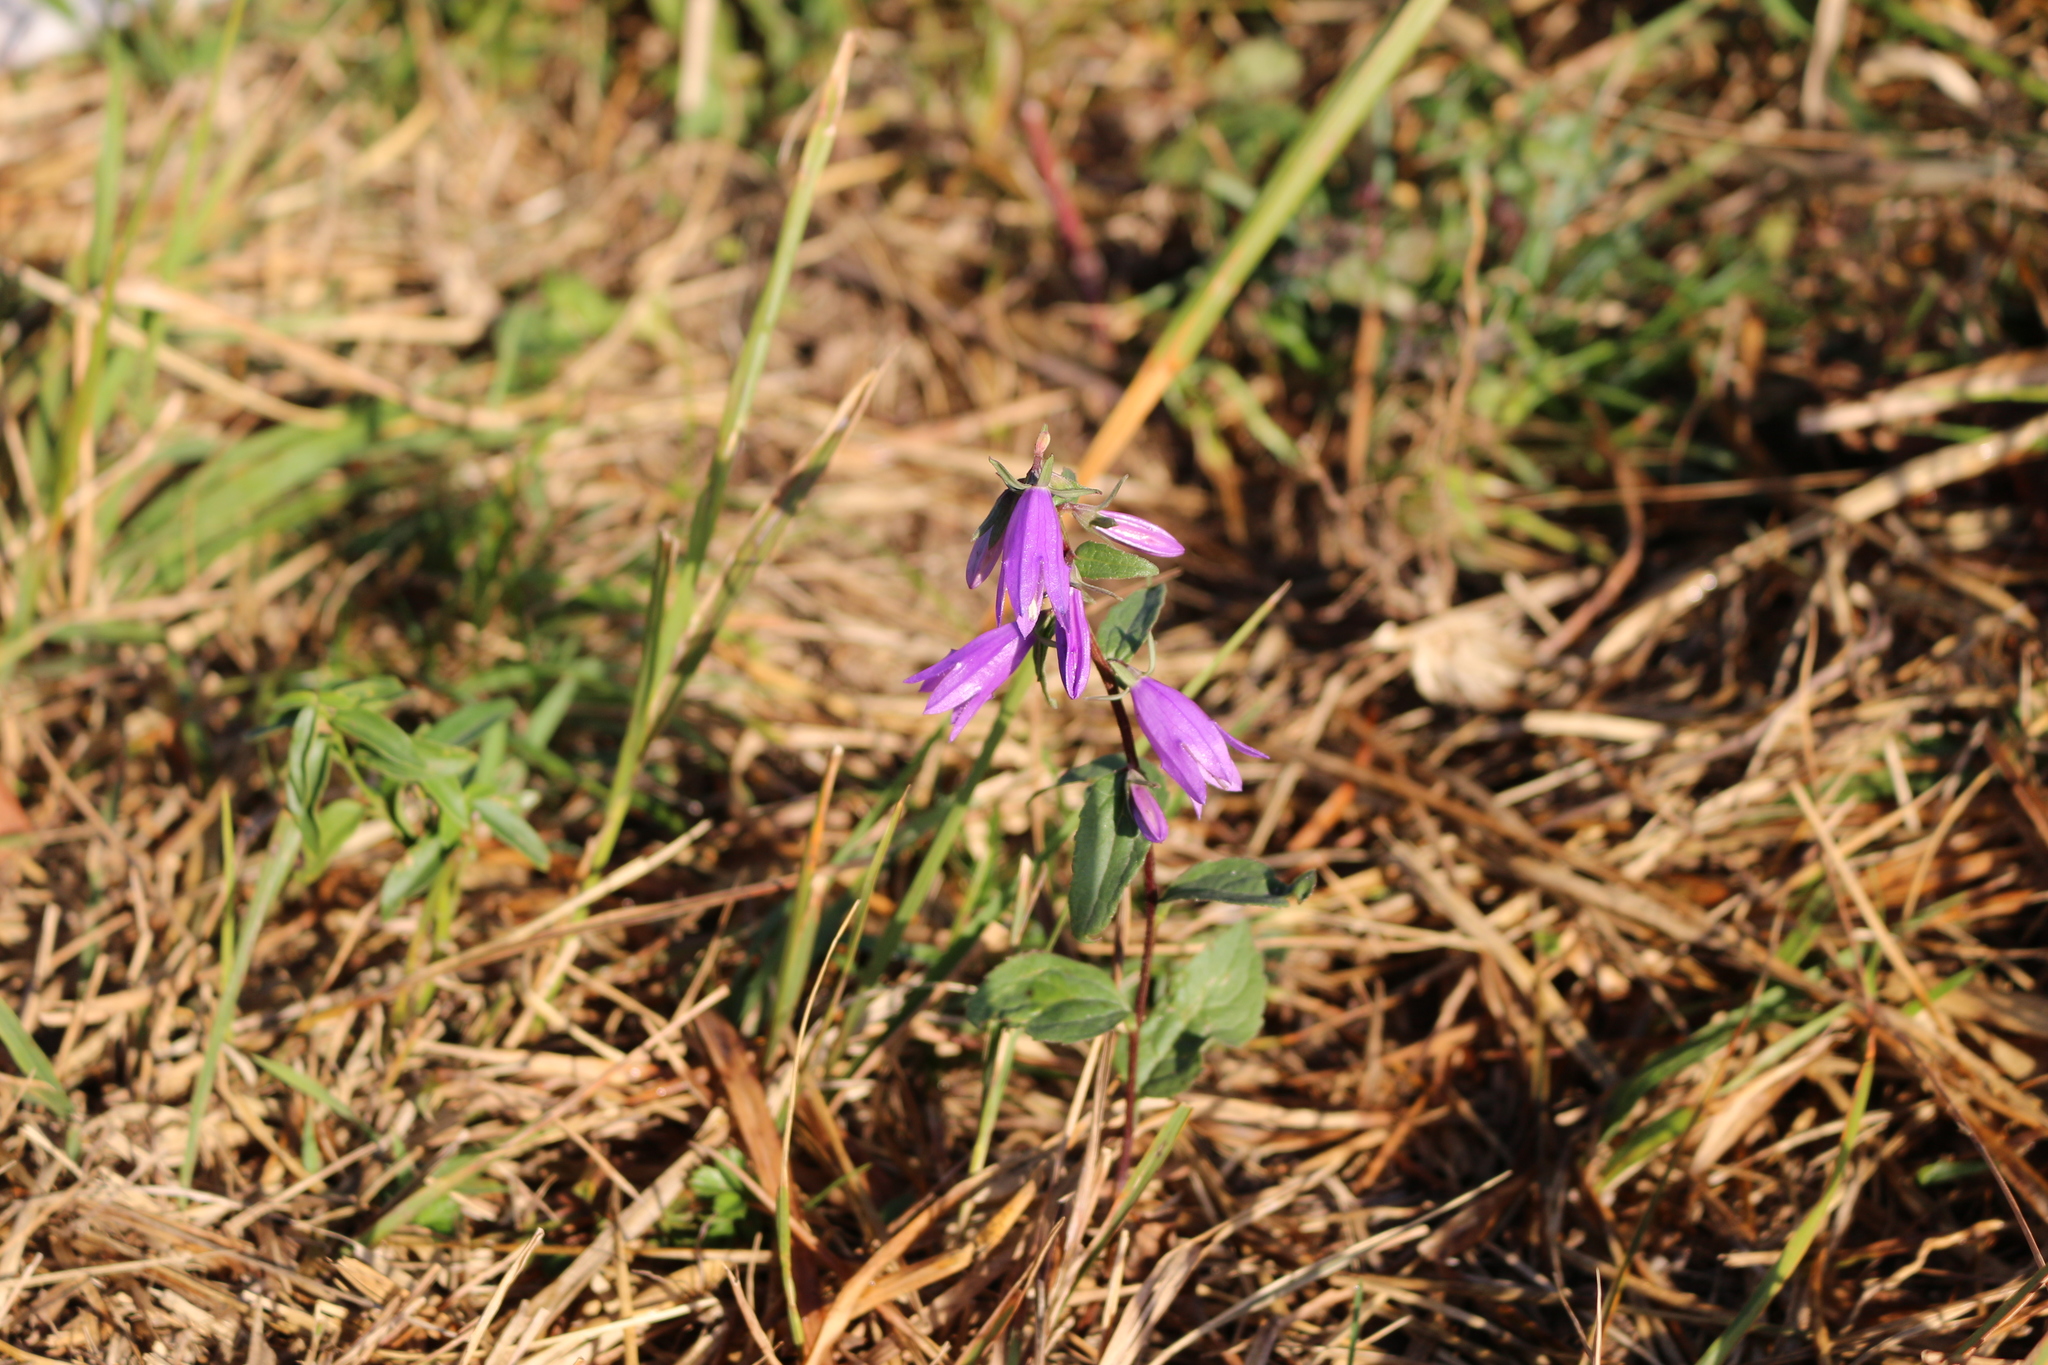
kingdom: Plantae
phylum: Tracheophyta
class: Magnoliopsida
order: Asterales
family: Campanulaceae
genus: Campanula
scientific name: Campanula rapunculoides
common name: Creeping bellflower
